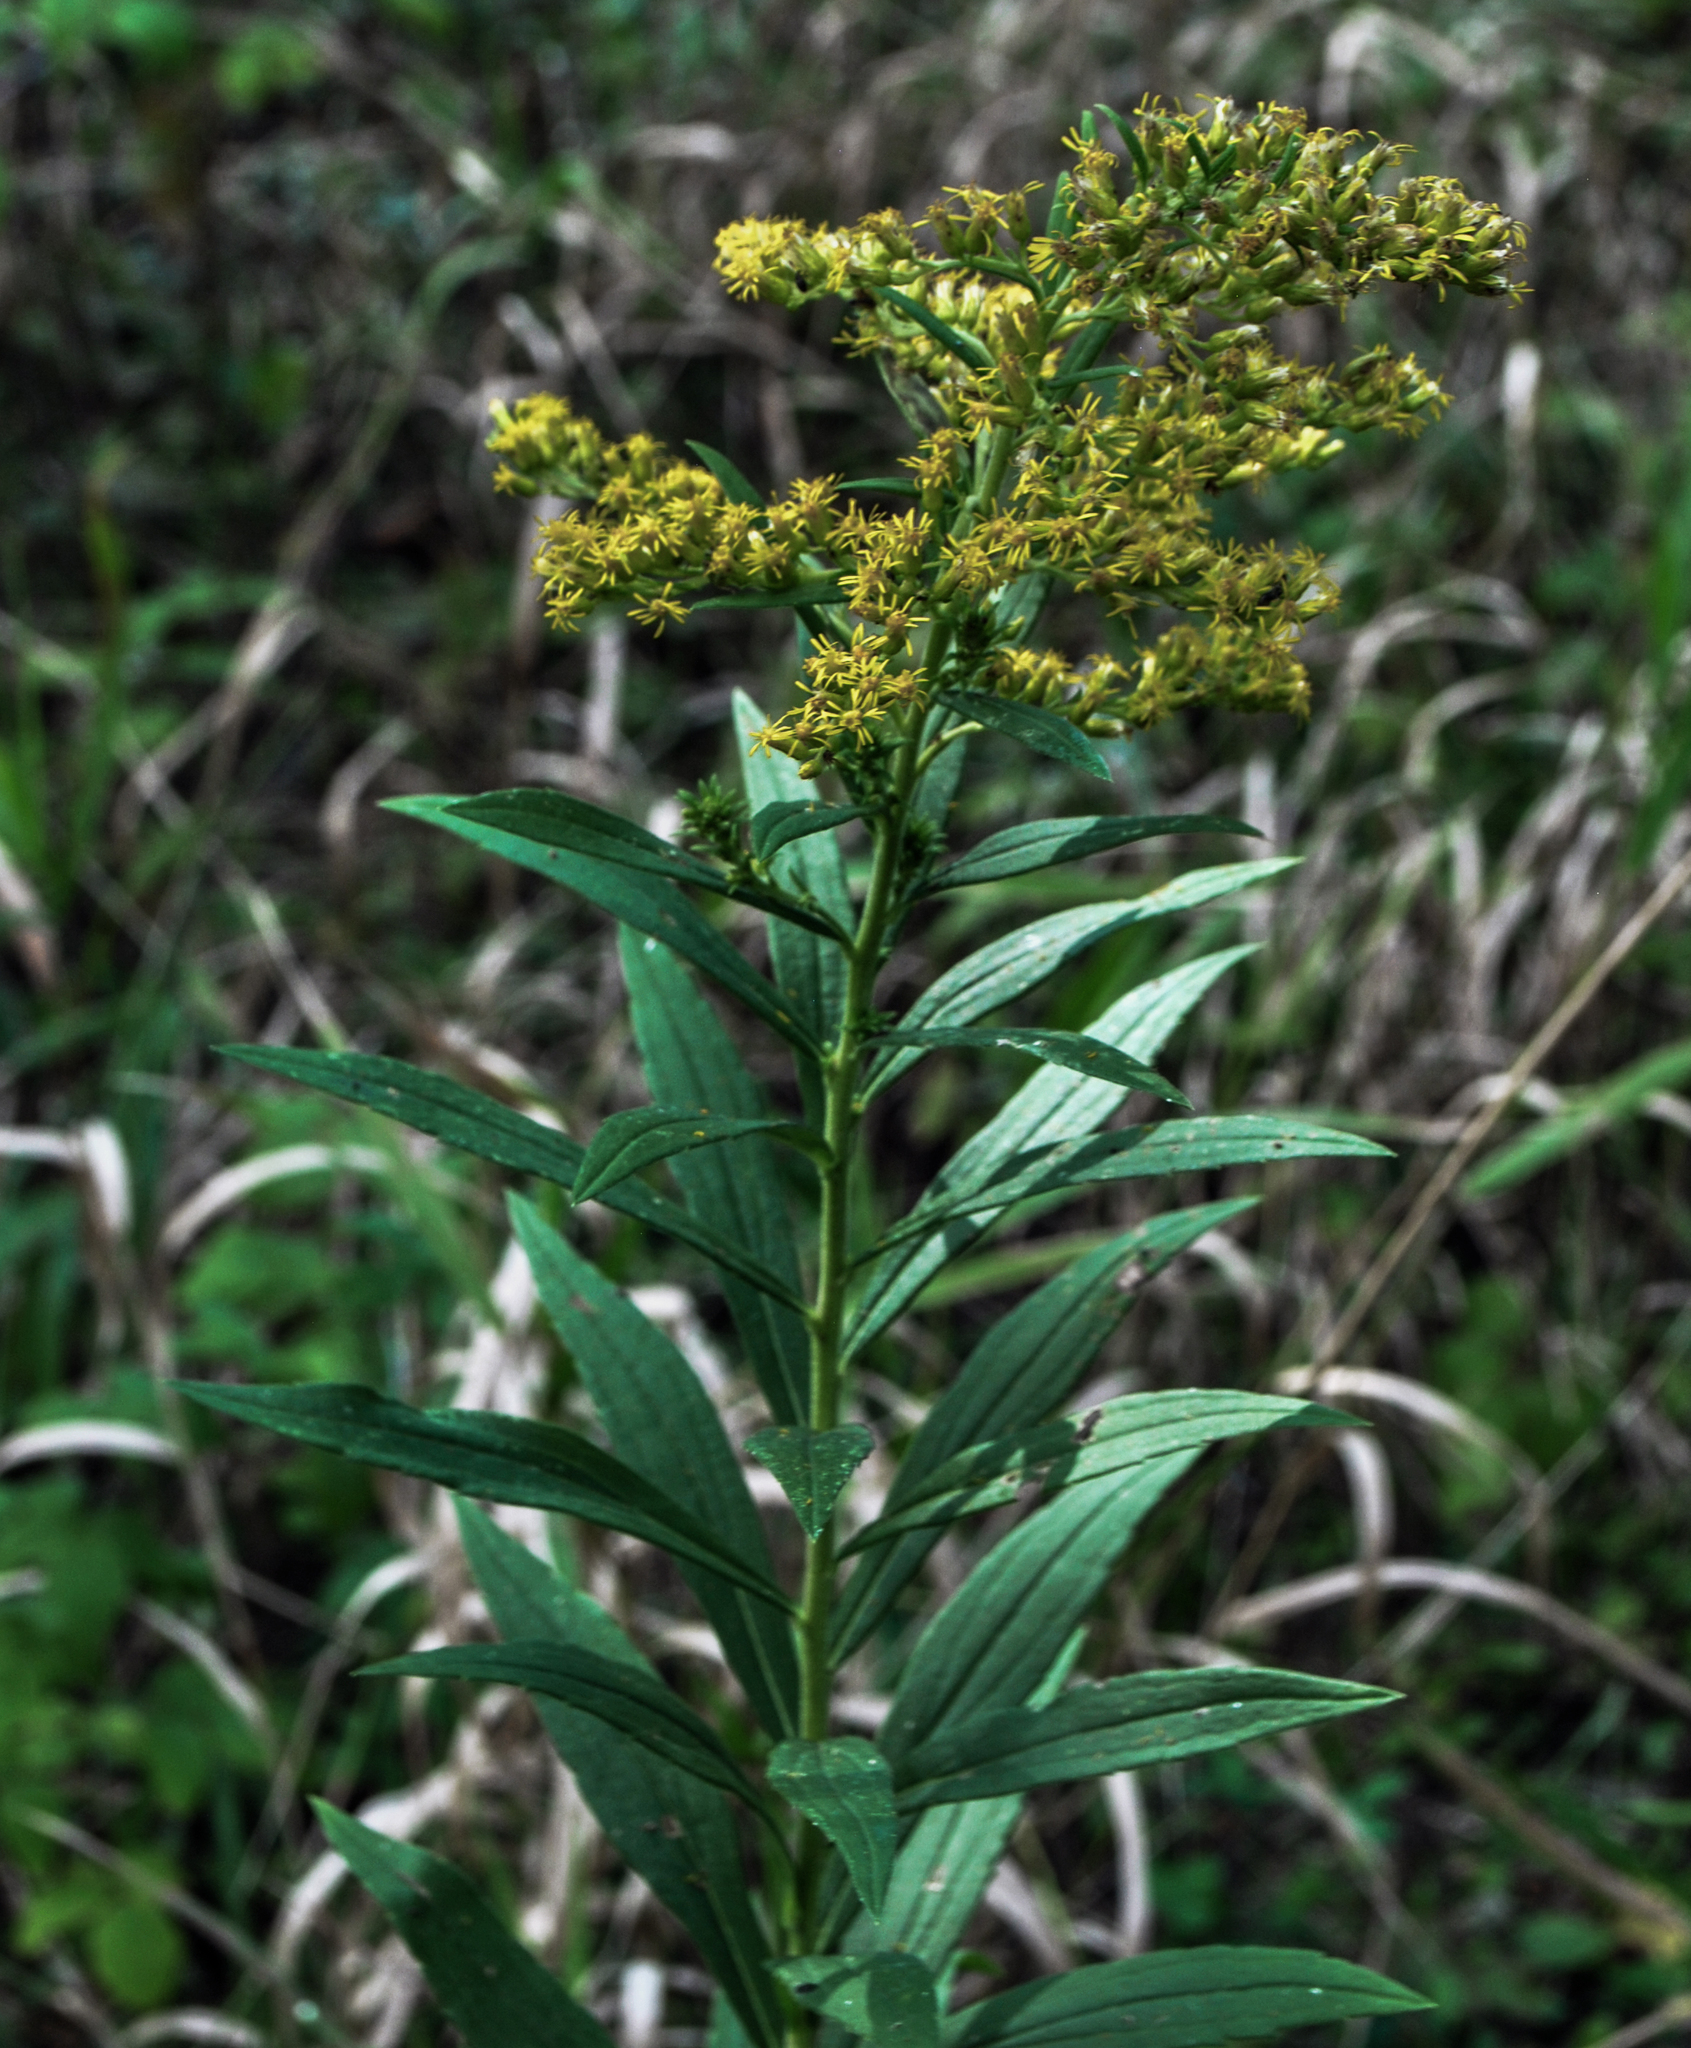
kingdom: Plantae
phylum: Tracheophyta
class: Magnoliopsida
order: Asterales
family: Asteraceae
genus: Solidago
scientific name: Solidago canadensis
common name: Canada goldenrod
